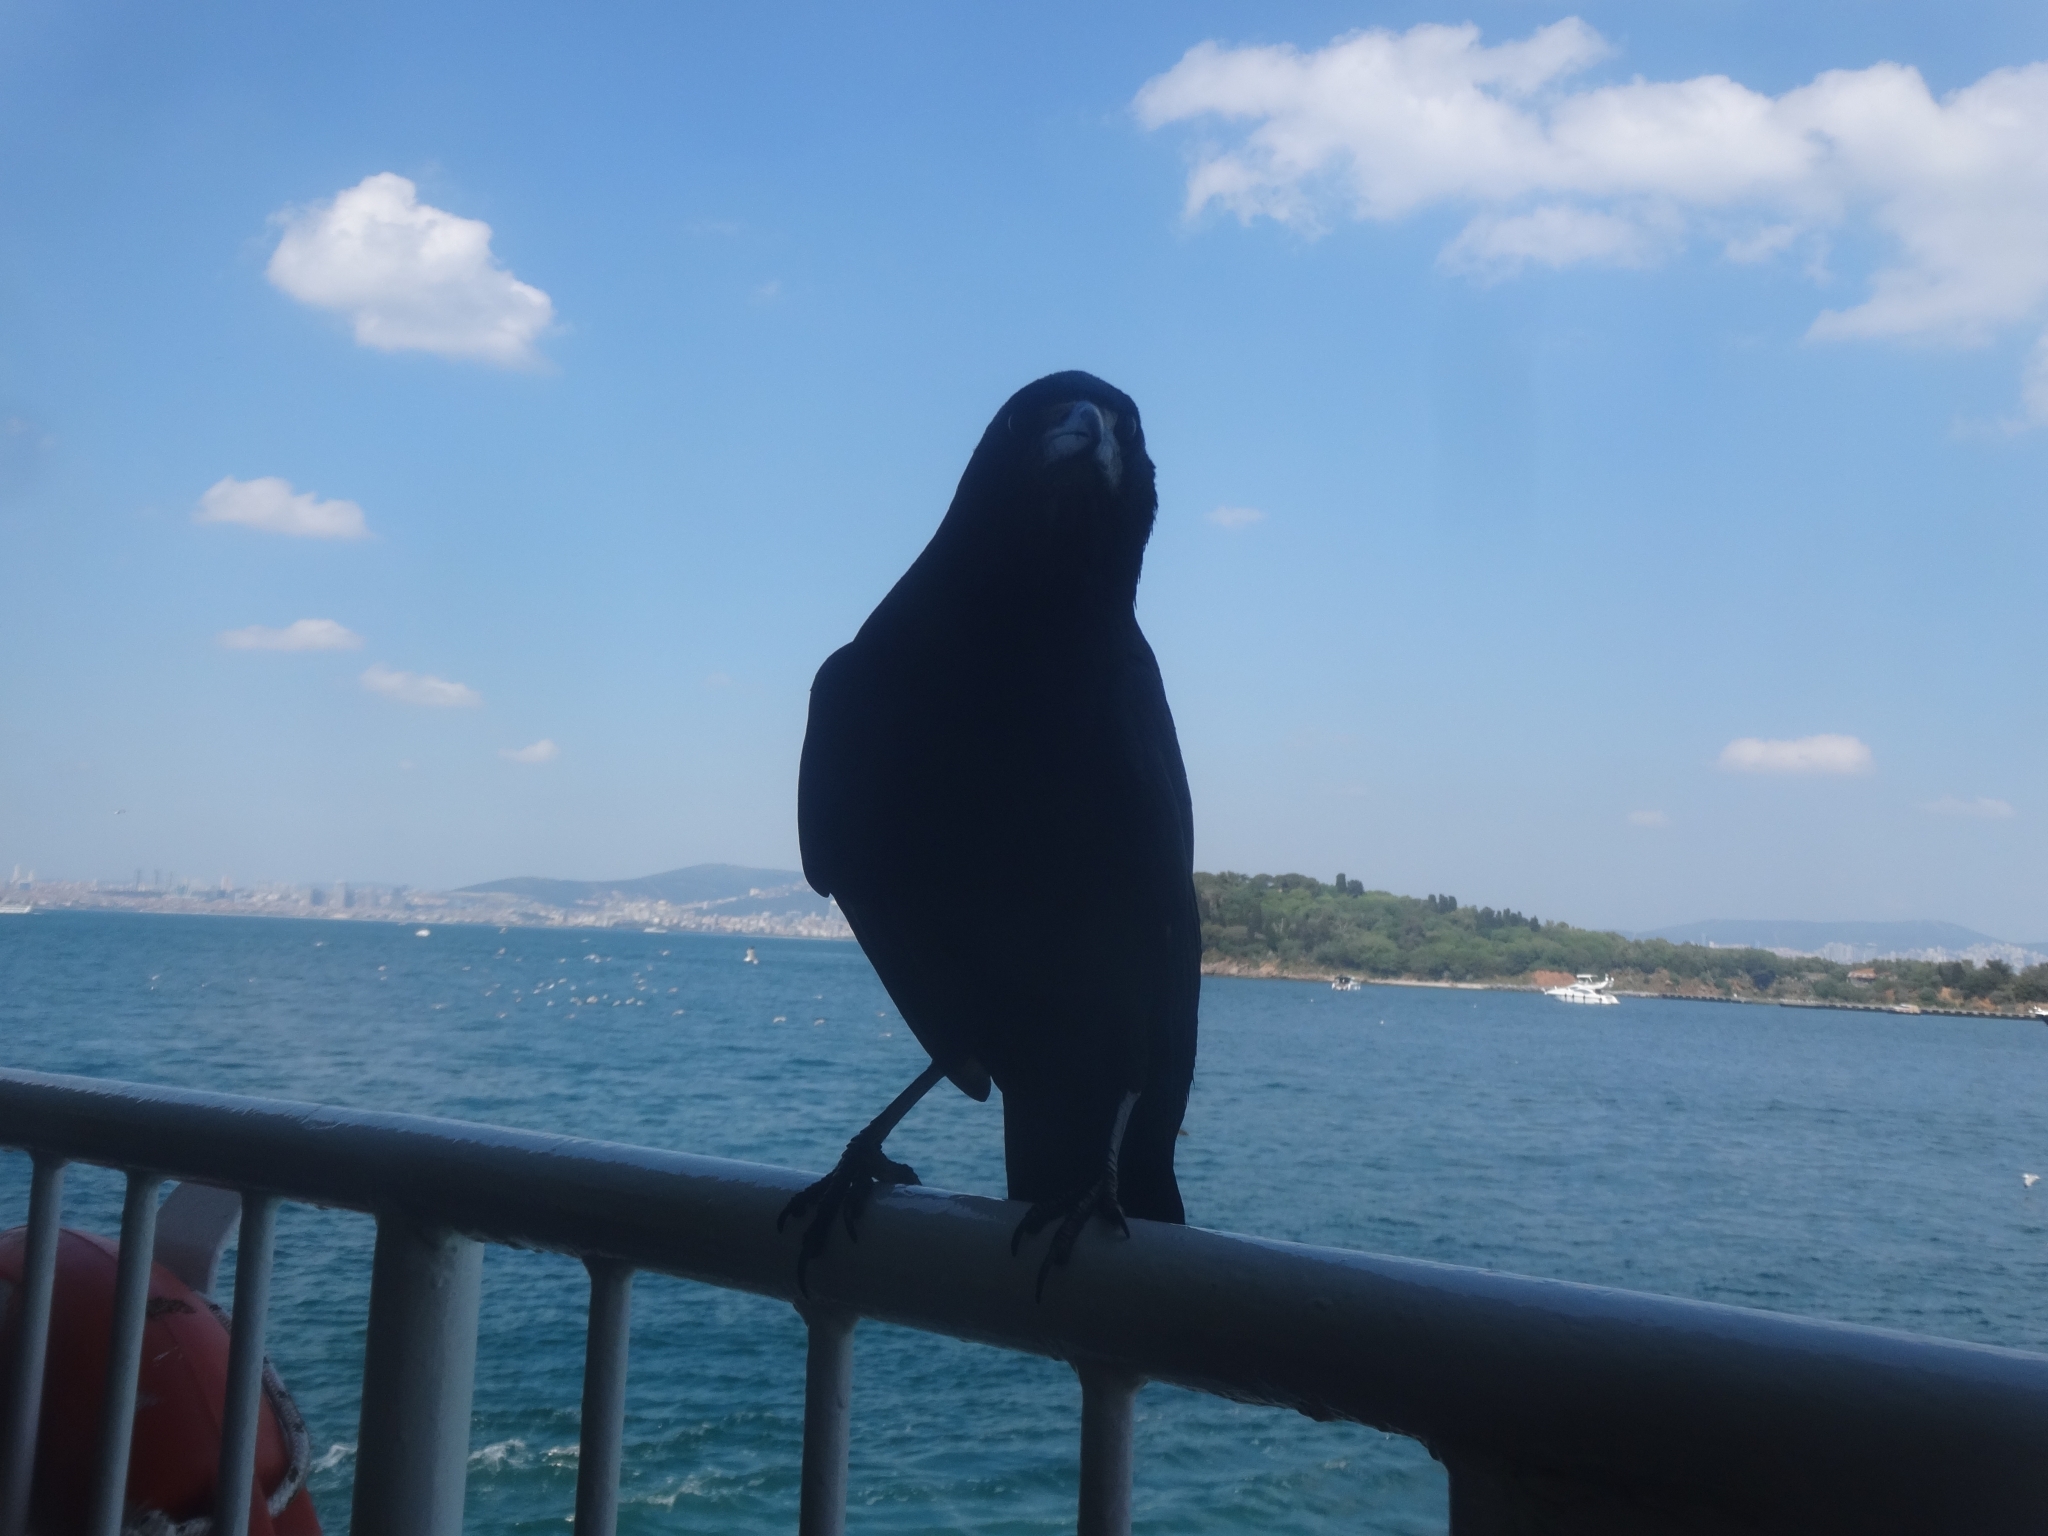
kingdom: Animalia
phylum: Chordata
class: Aves
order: Passeriformes
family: Corvidae
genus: Corvus
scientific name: Corvus frugilegus
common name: Rook
